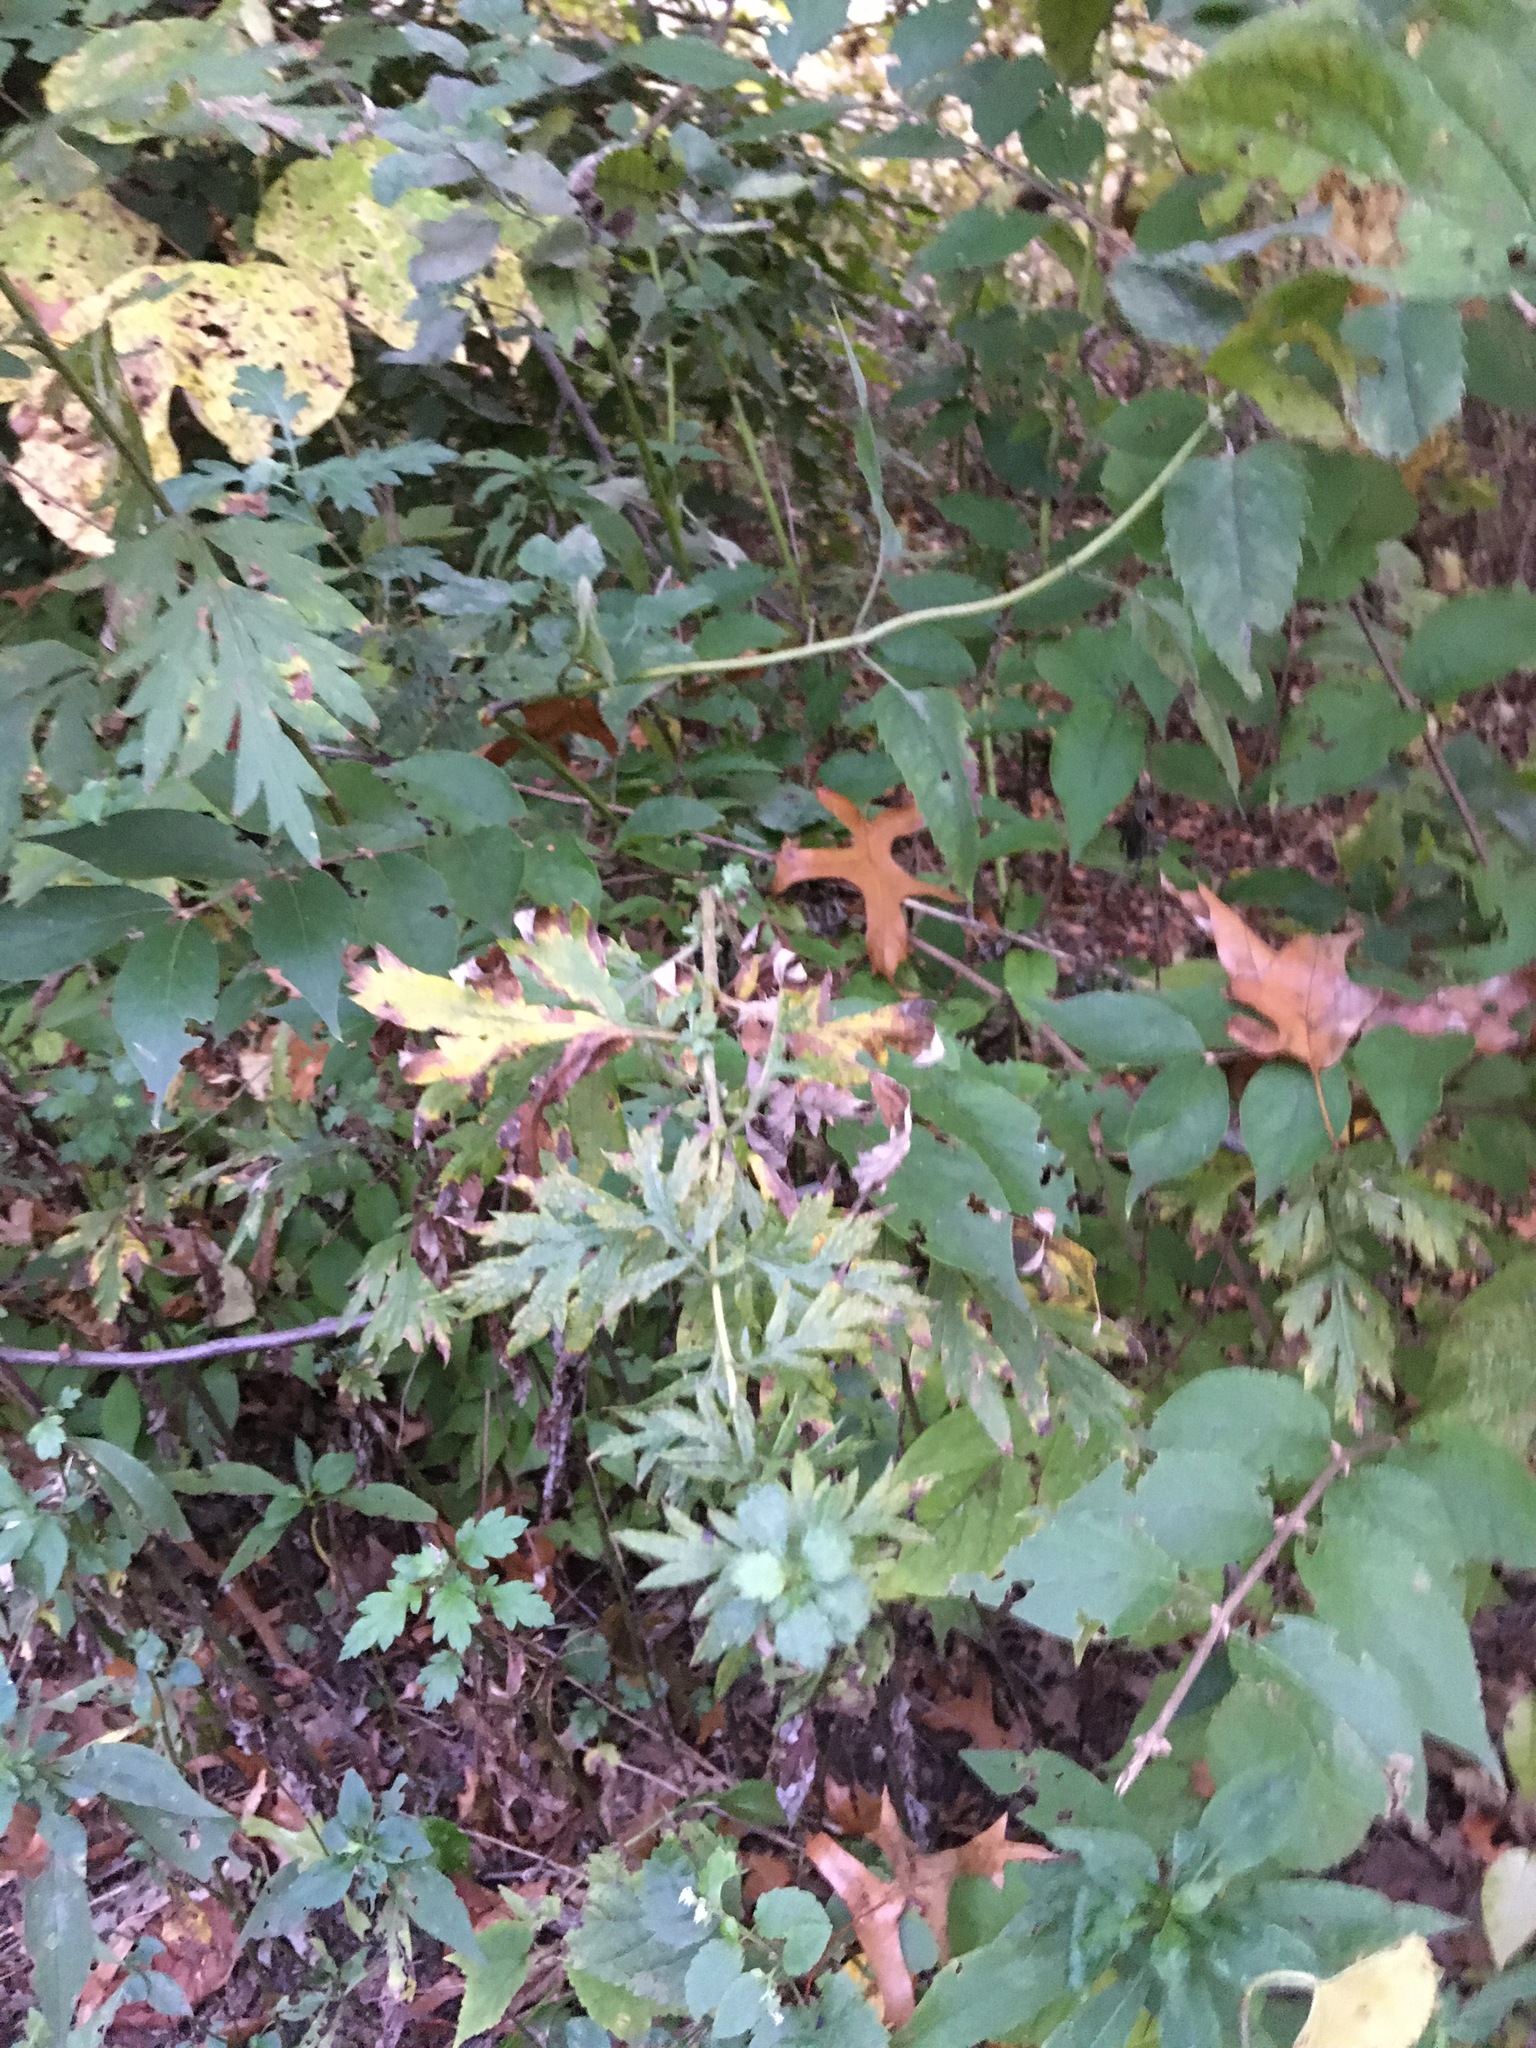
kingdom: Plantae
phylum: Tracheophyta
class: Magnoliopsida
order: Asterales
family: Asteraceae
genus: Artemisia
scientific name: Artemisia vulgaris
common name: Mugwort
